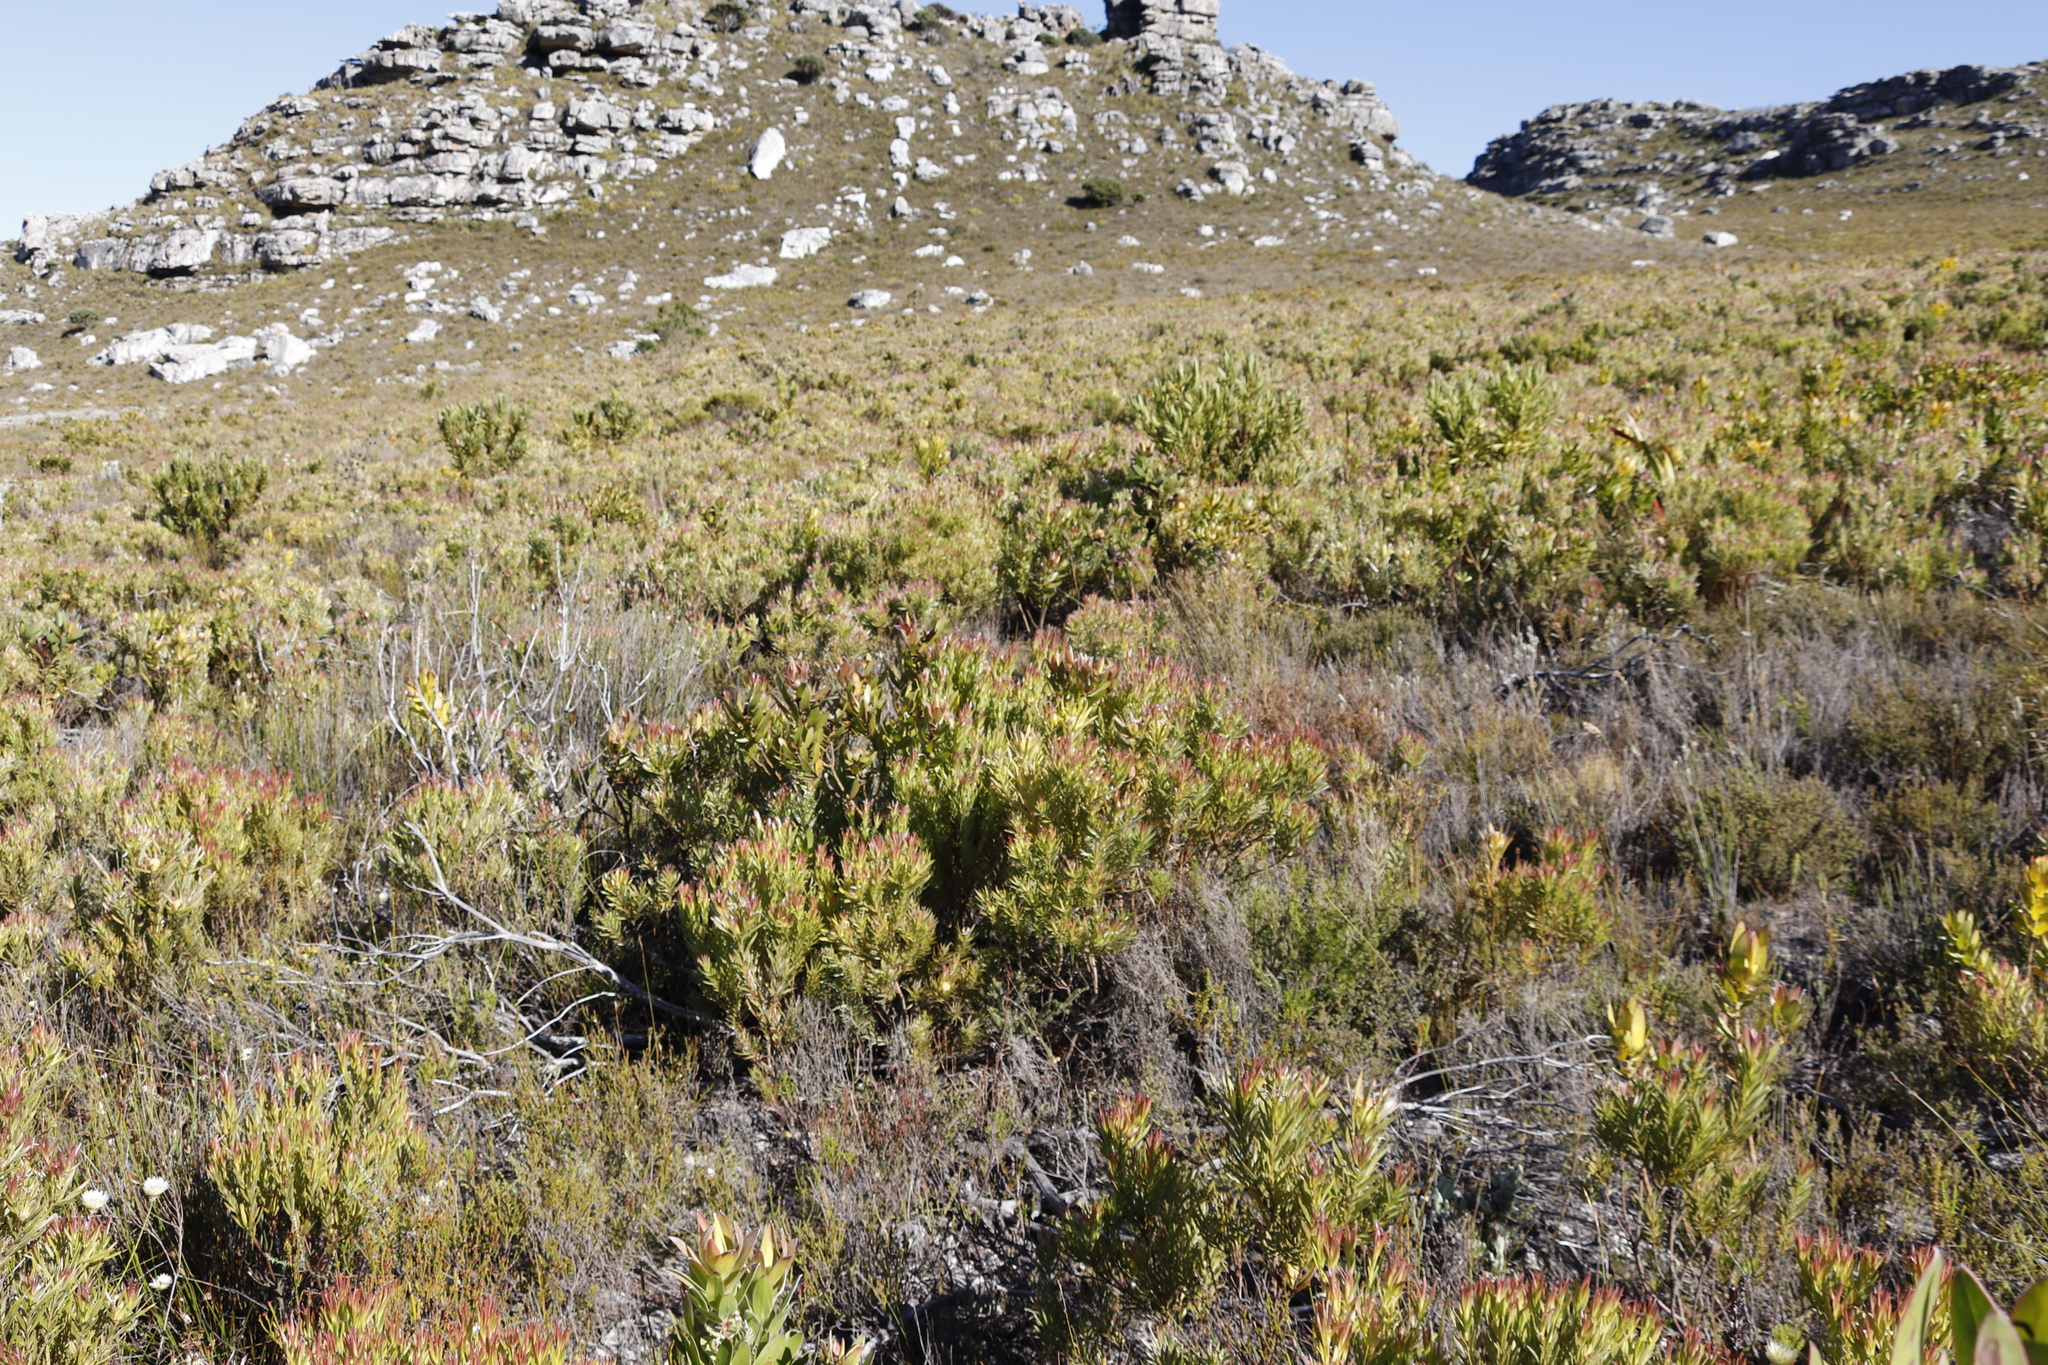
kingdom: Plantae
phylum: Tracheophyta
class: Magnoliopsida
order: Proteales
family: Proteaceae
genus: Leucadendron
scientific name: Leucadendron xanthoconus
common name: Sickle-leaf conebush
